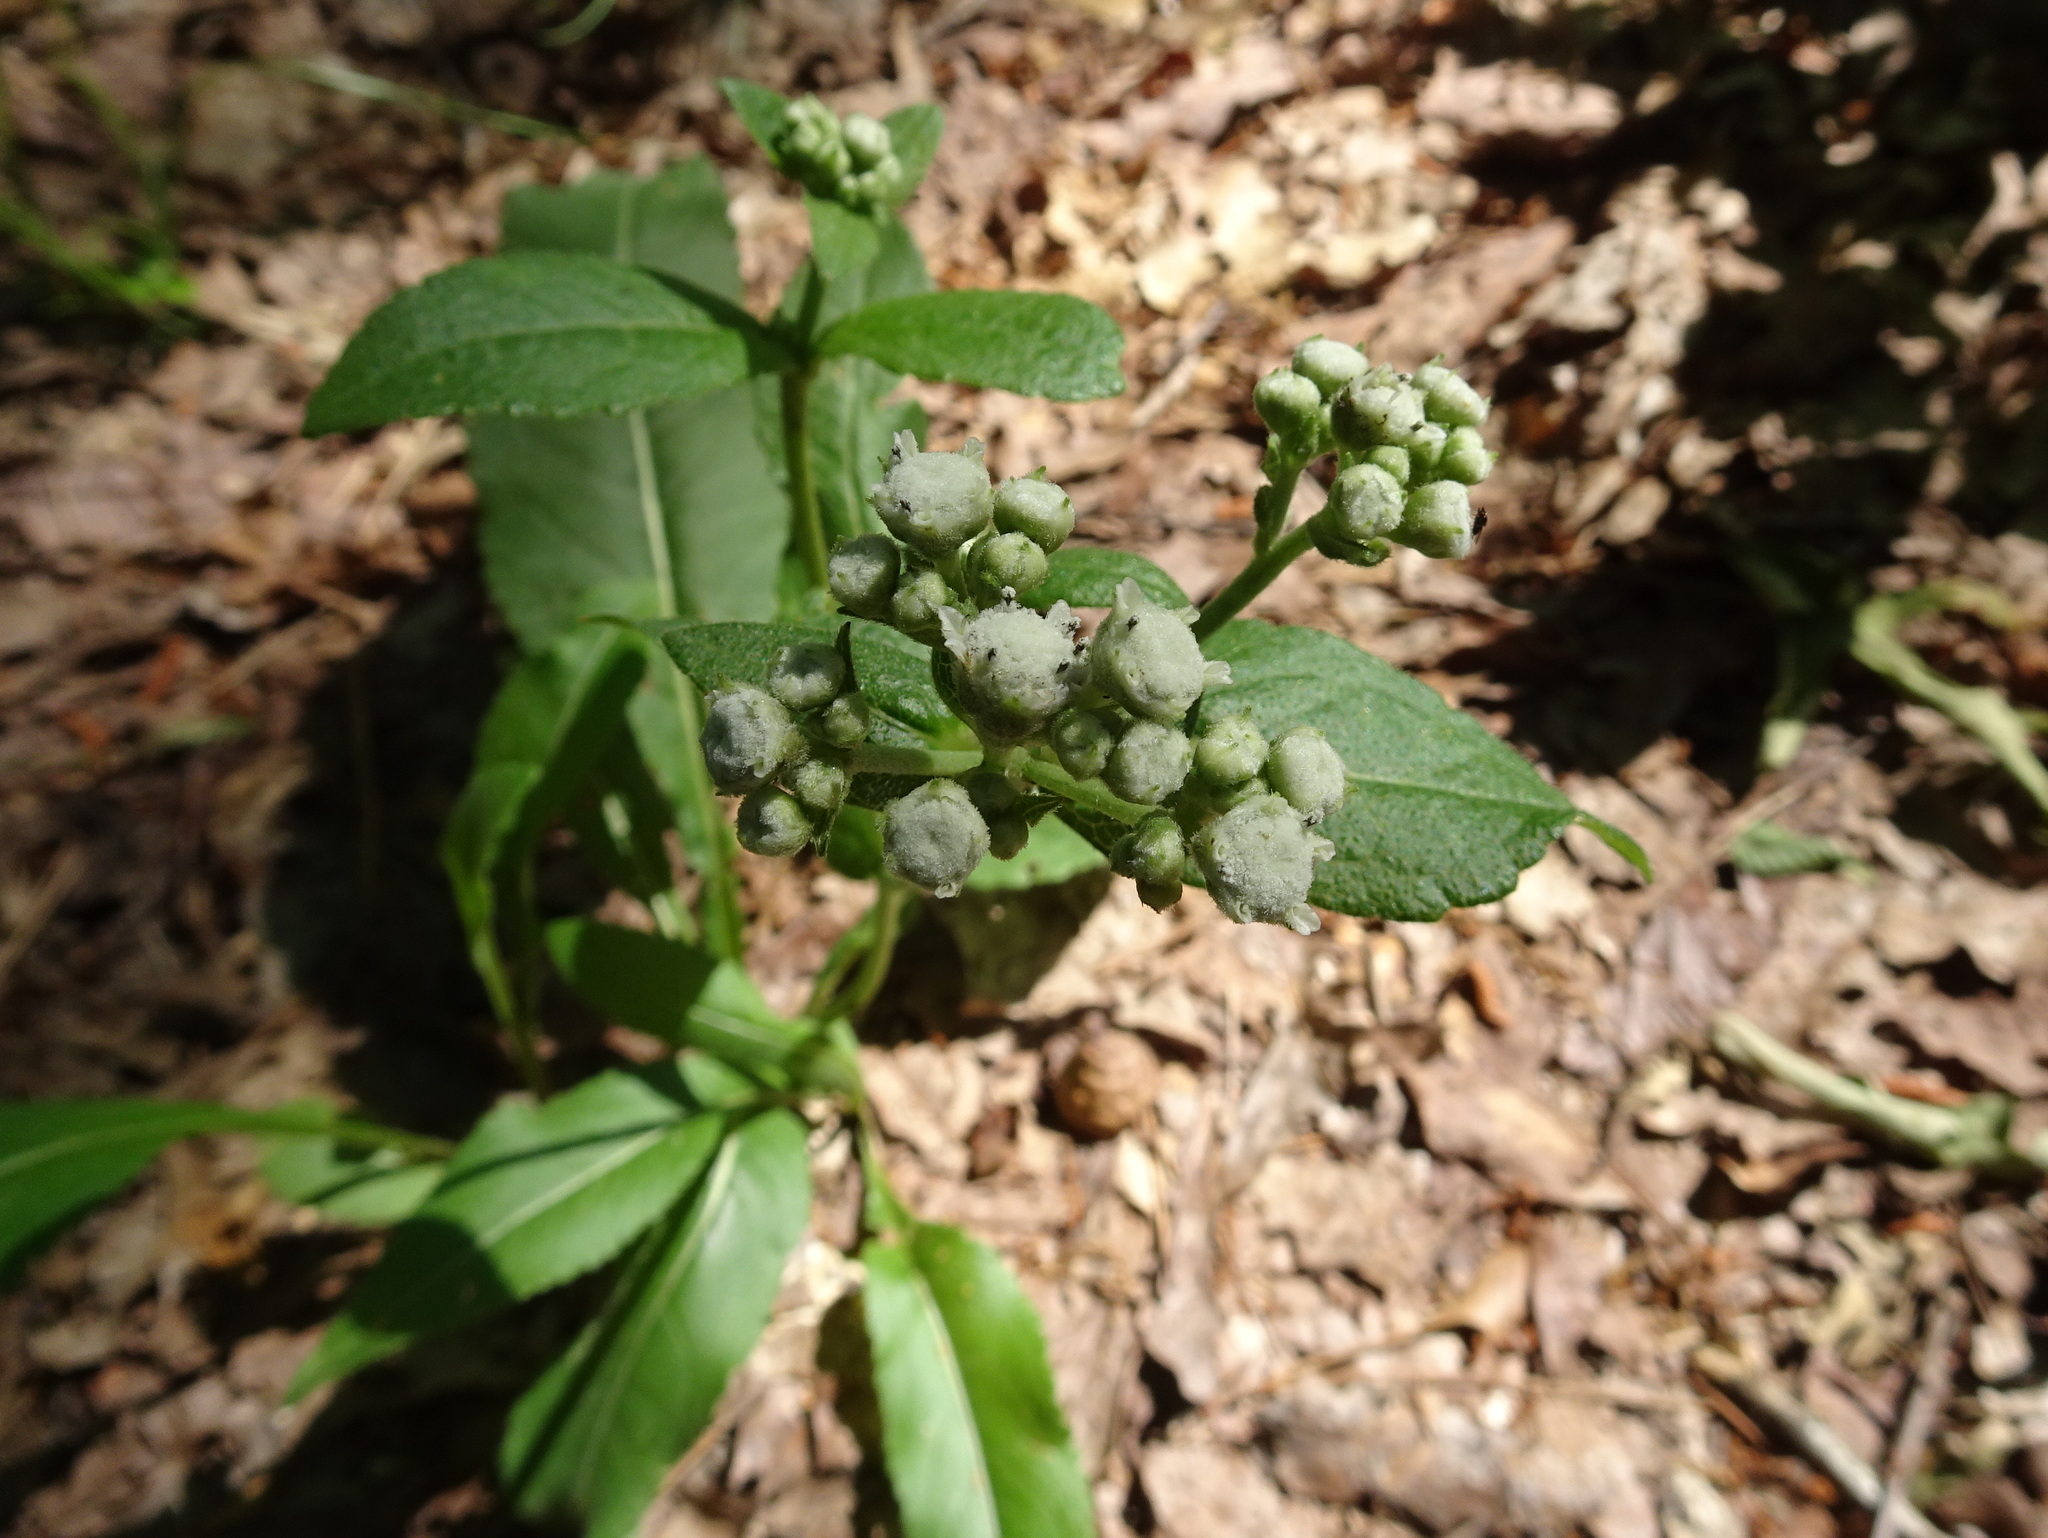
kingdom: Plantae
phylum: Tracheophyta
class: Magnoliopsida
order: Asterales
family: Asteraceae
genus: Parthenium
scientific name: Parthenium integrifolium
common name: American feverfew
